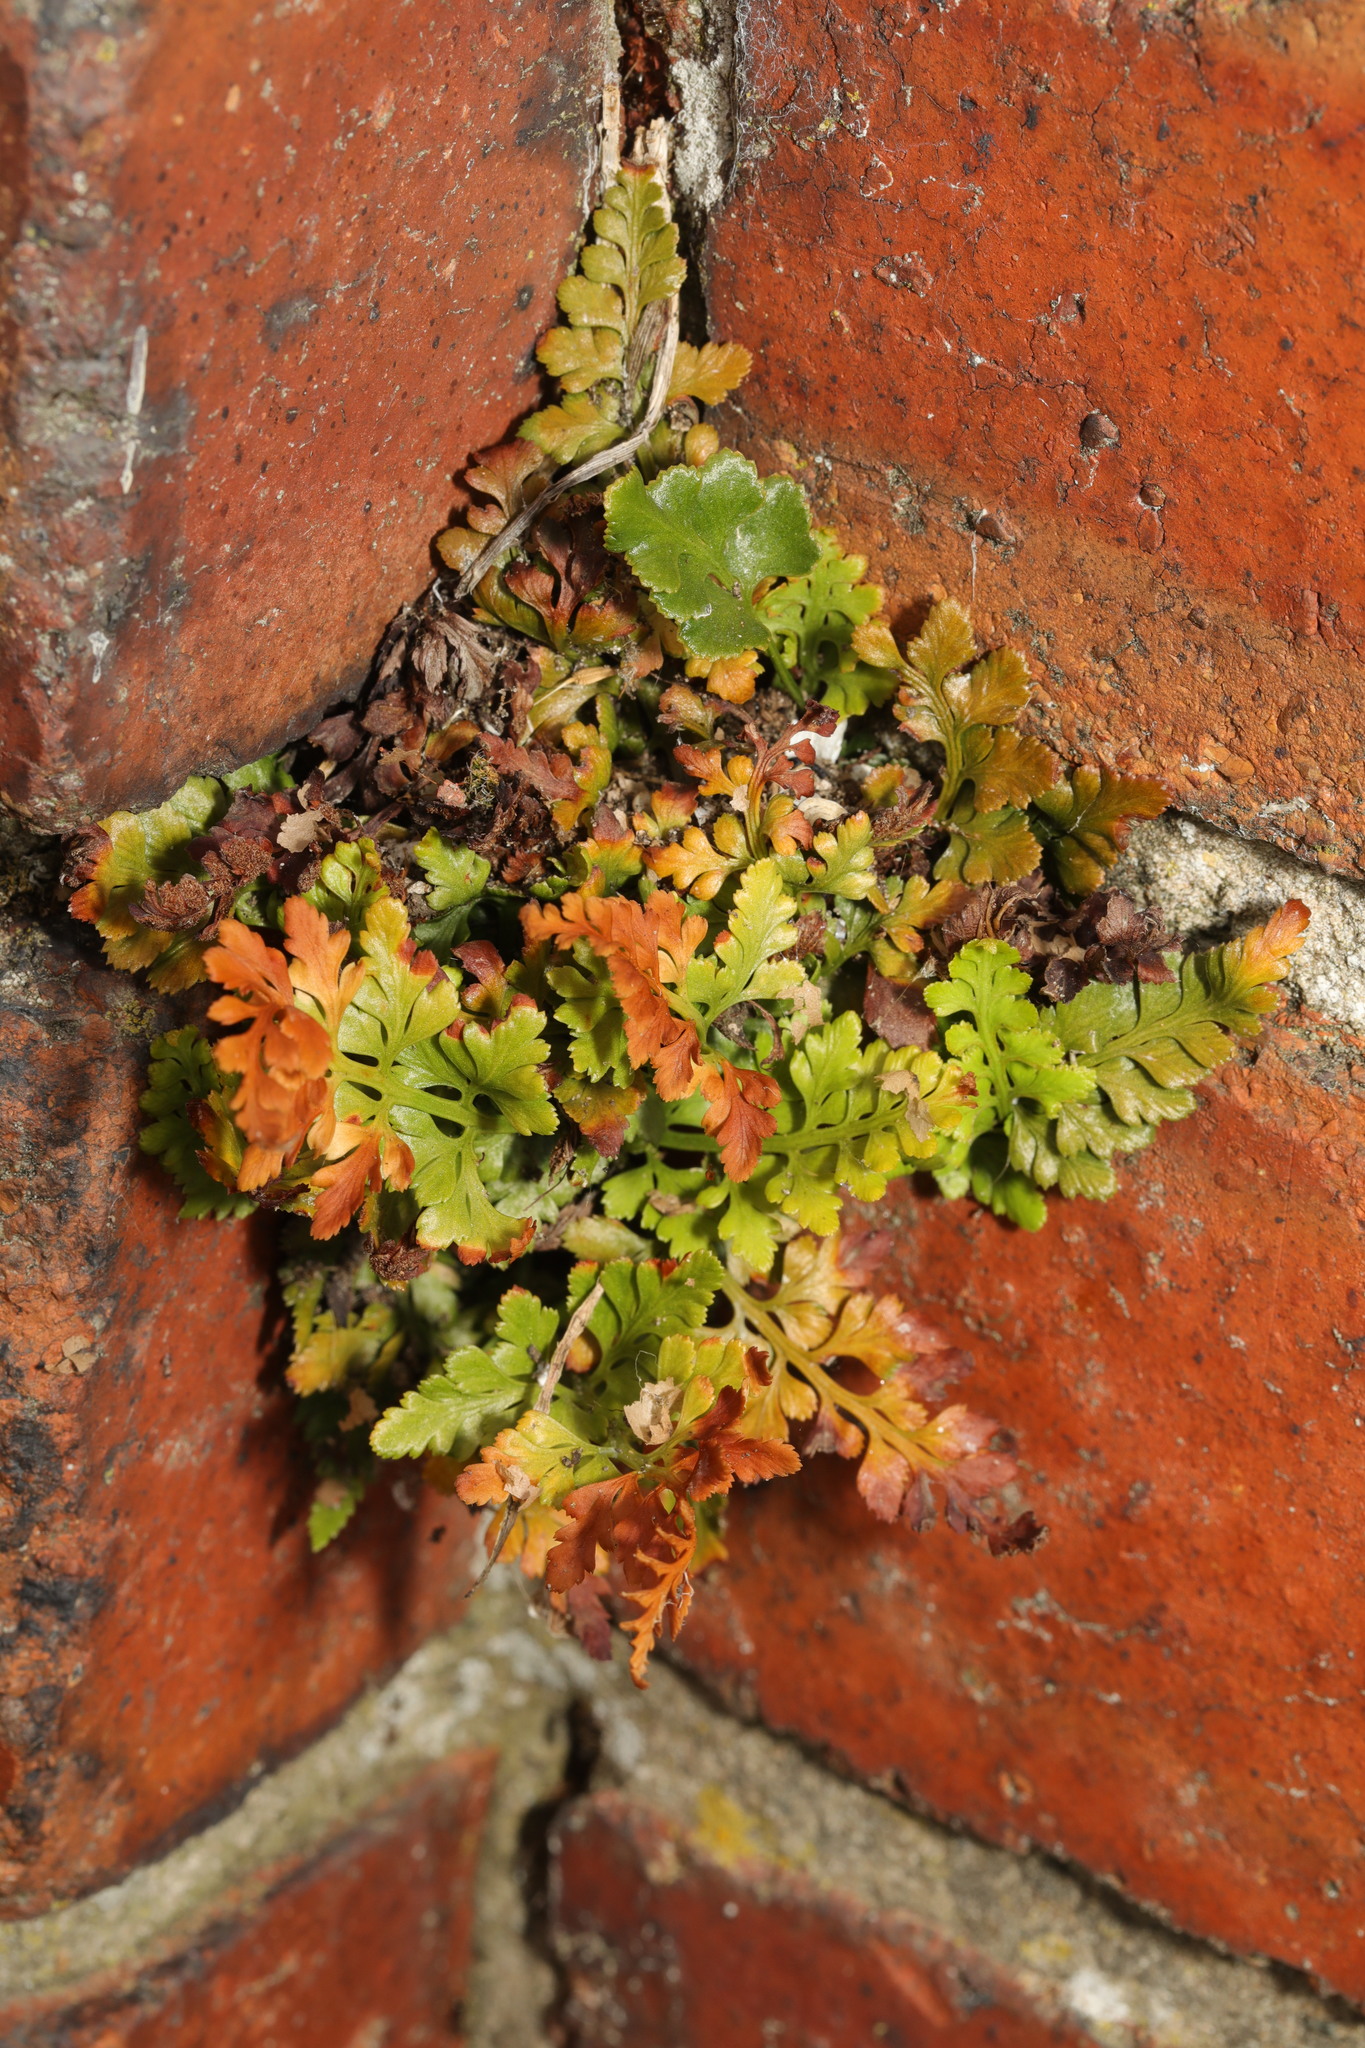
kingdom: Plantae
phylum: Tracheophyta
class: Polypodiopsida
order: Polypodiales
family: Aspleniaceae
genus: Asplenium
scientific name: Asplenium adiantum-nigrum
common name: Black spleenwort
